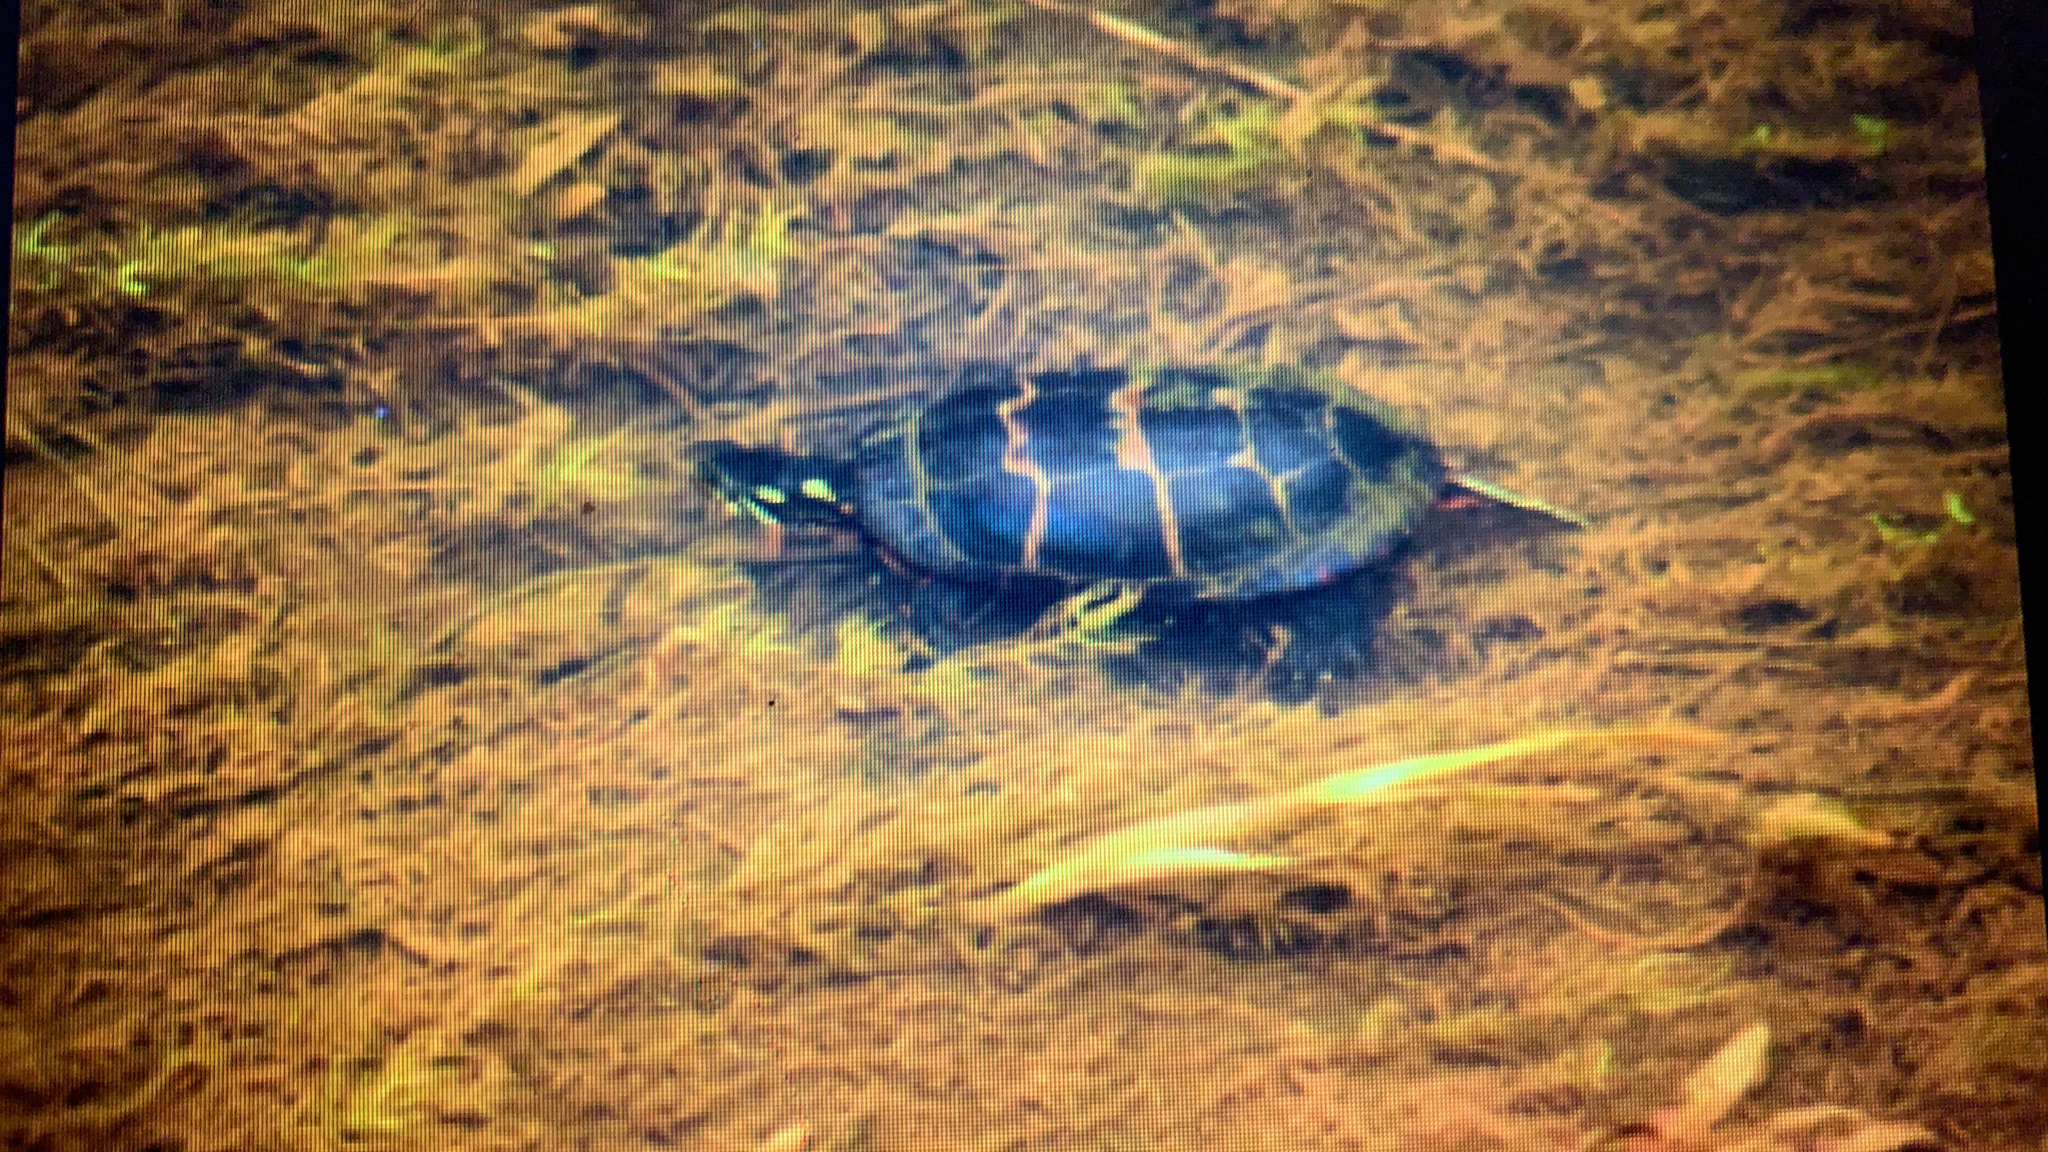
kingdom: Animalia
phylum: Chordata
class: Testudines
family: Emydidae
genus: Chrysemys
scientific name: Chrysemys picta
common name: Painted turtle
